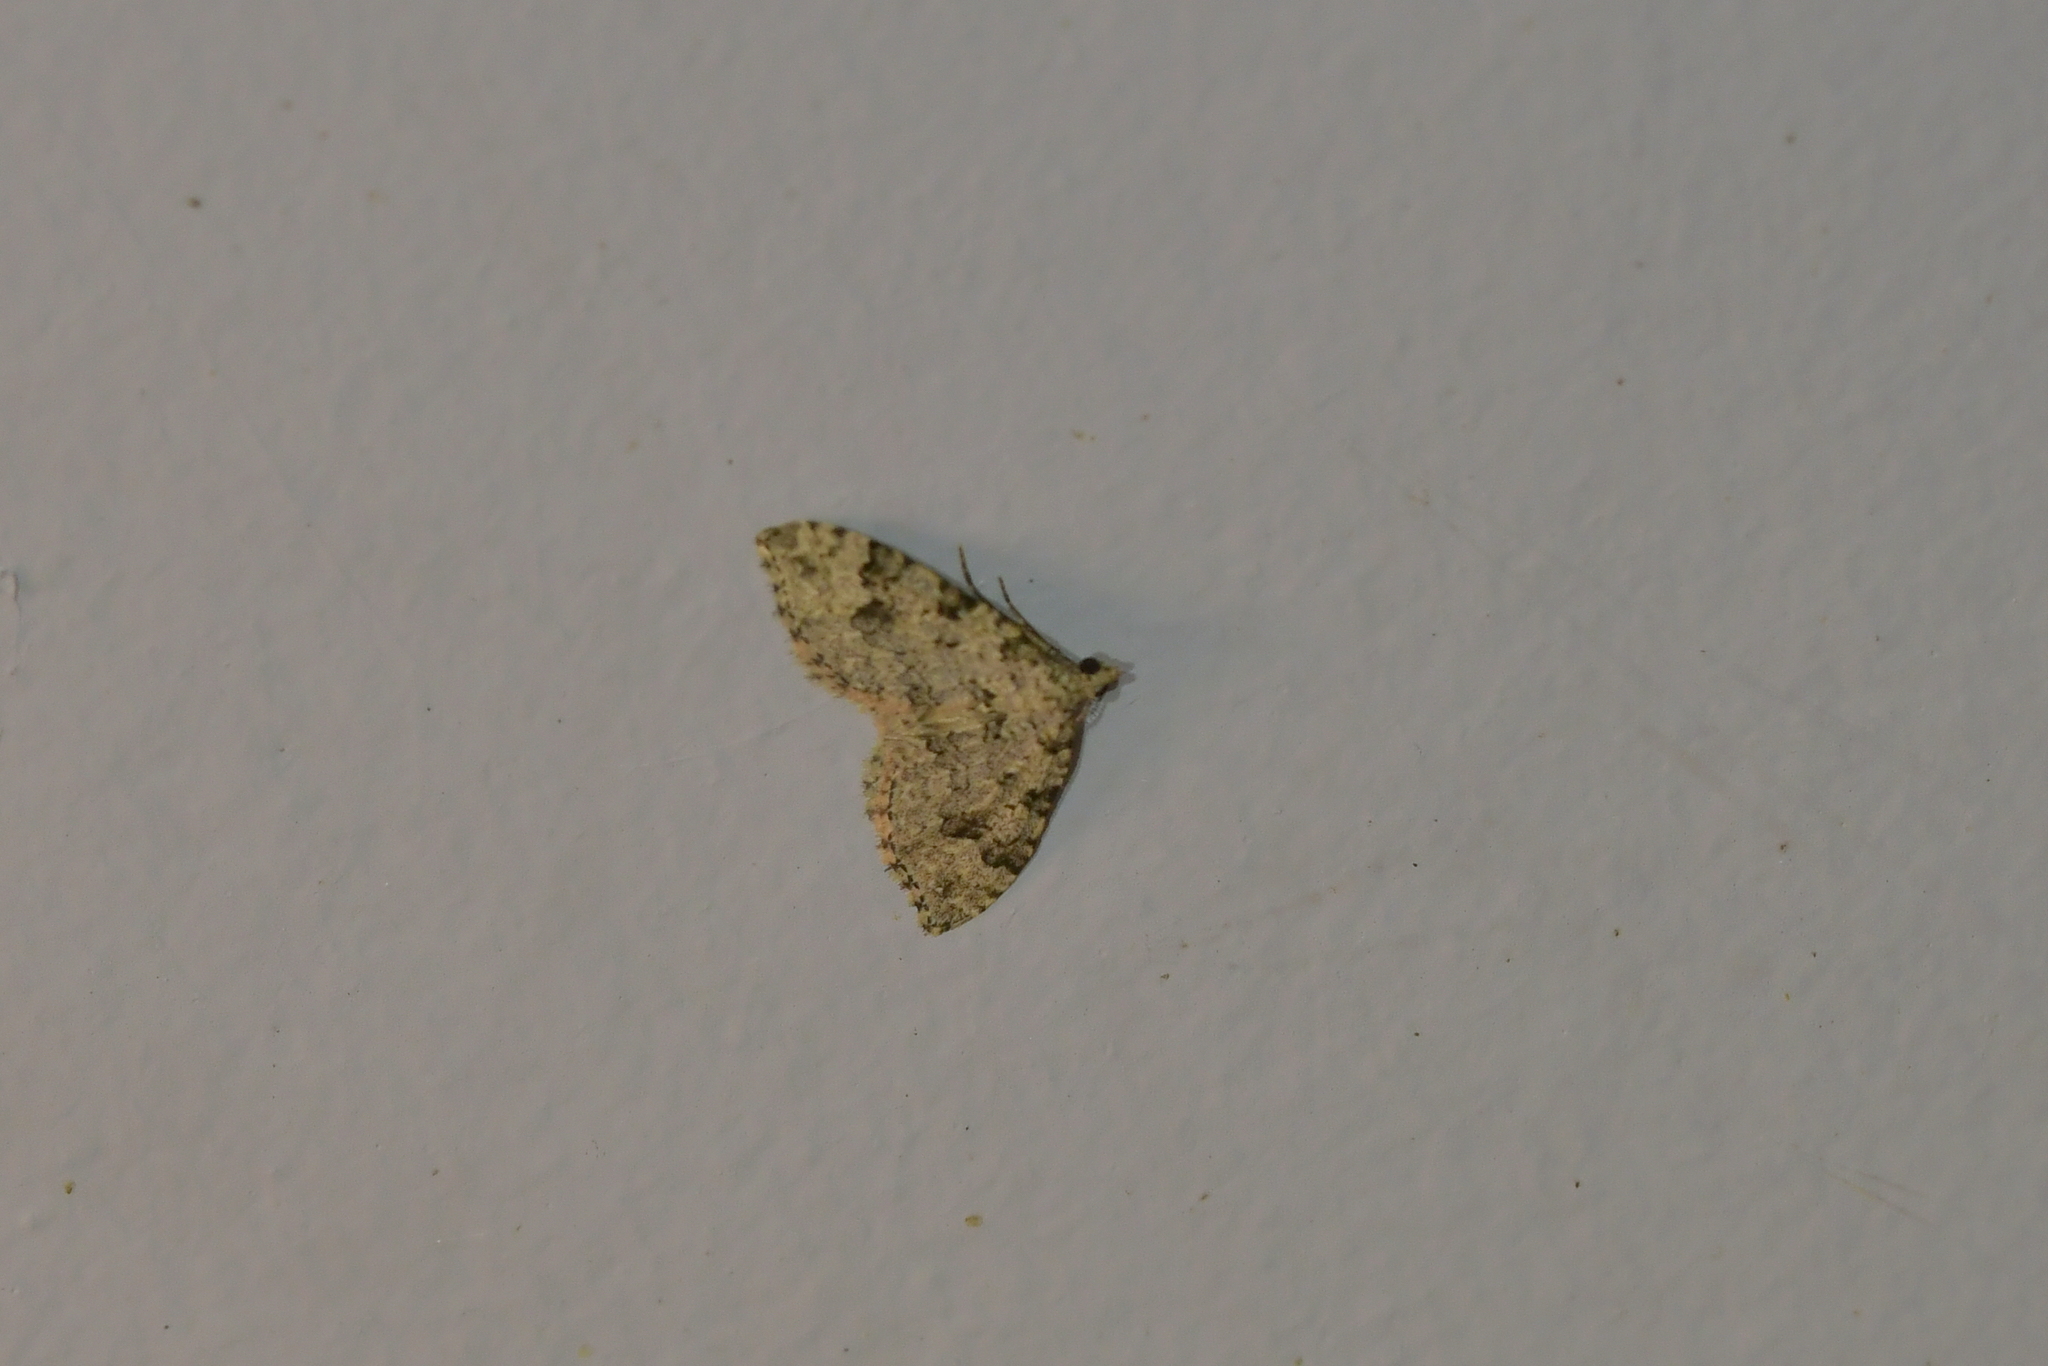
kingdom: Animalia
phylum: Arthropoda
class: Insecta
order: Lepidoptera
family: Geometridae
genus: Helastia
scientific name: Helastia cinerearia
